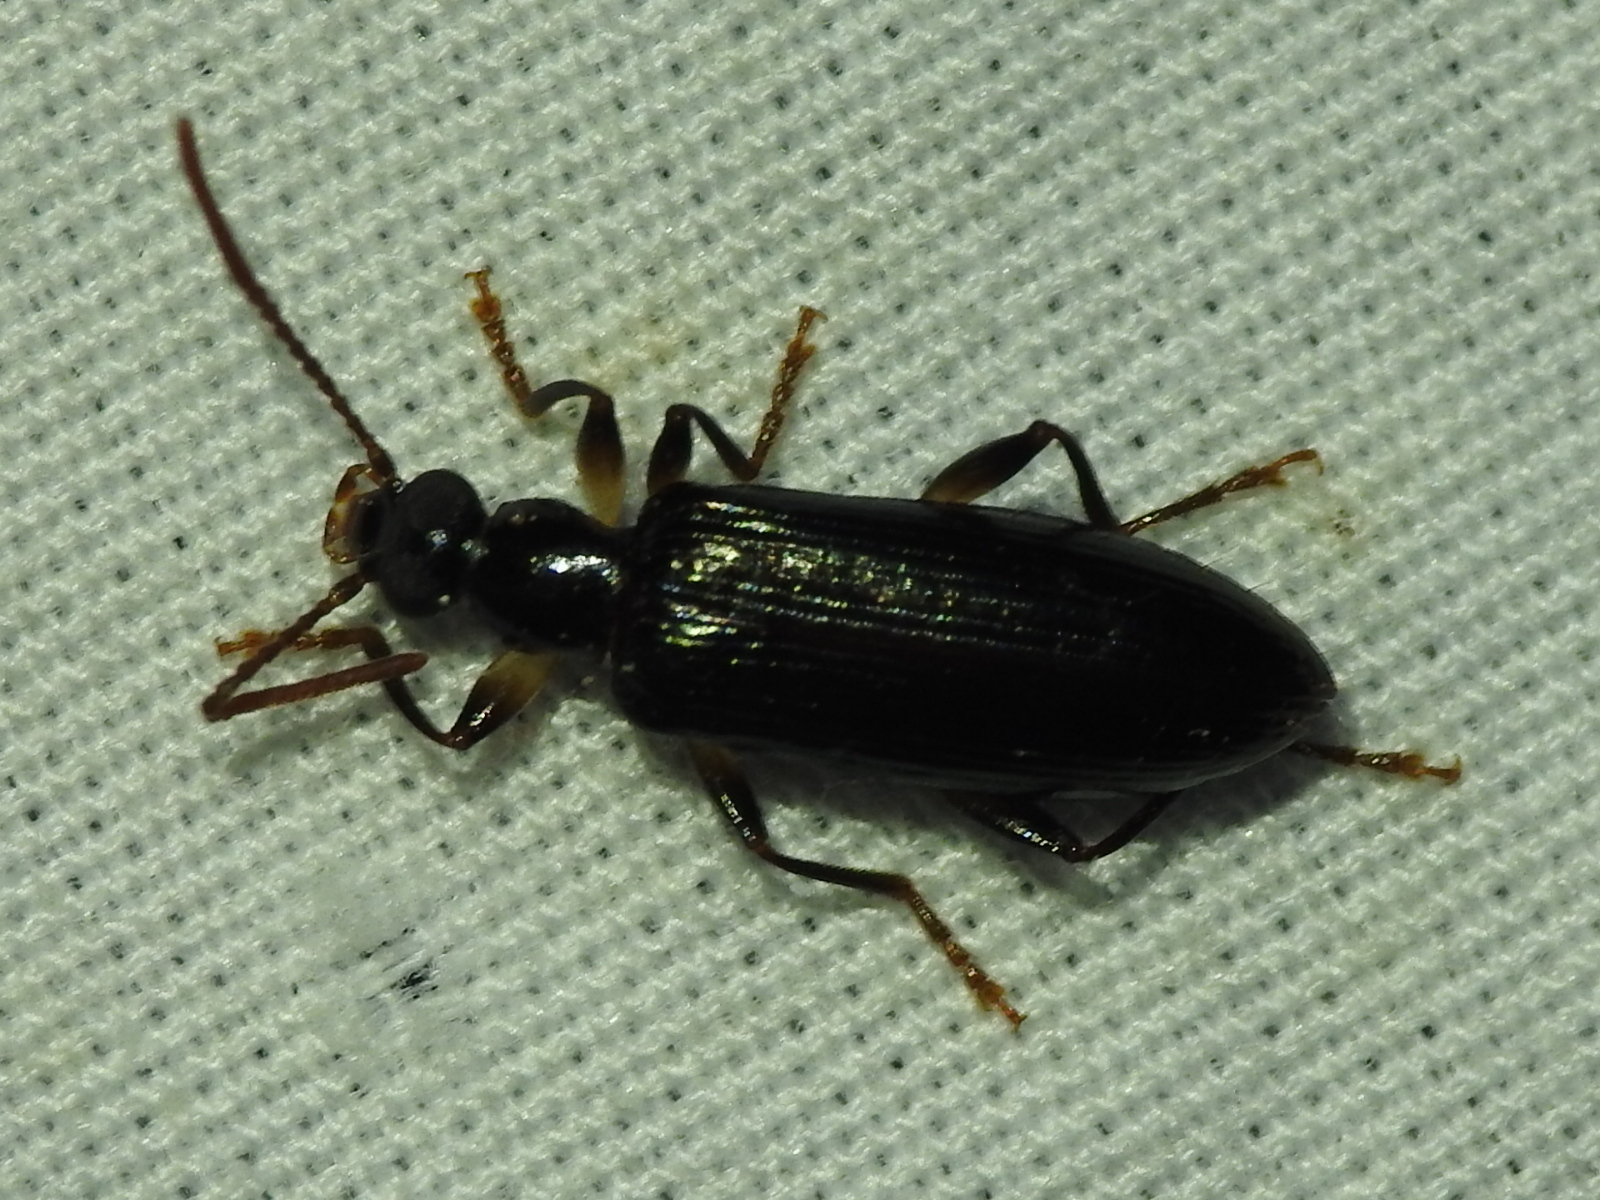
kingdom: Animalia
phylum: Arthropoda
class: Insecta
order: Coleoptera
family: Tenebrionidae
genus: Statira
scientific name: Statira basalis
